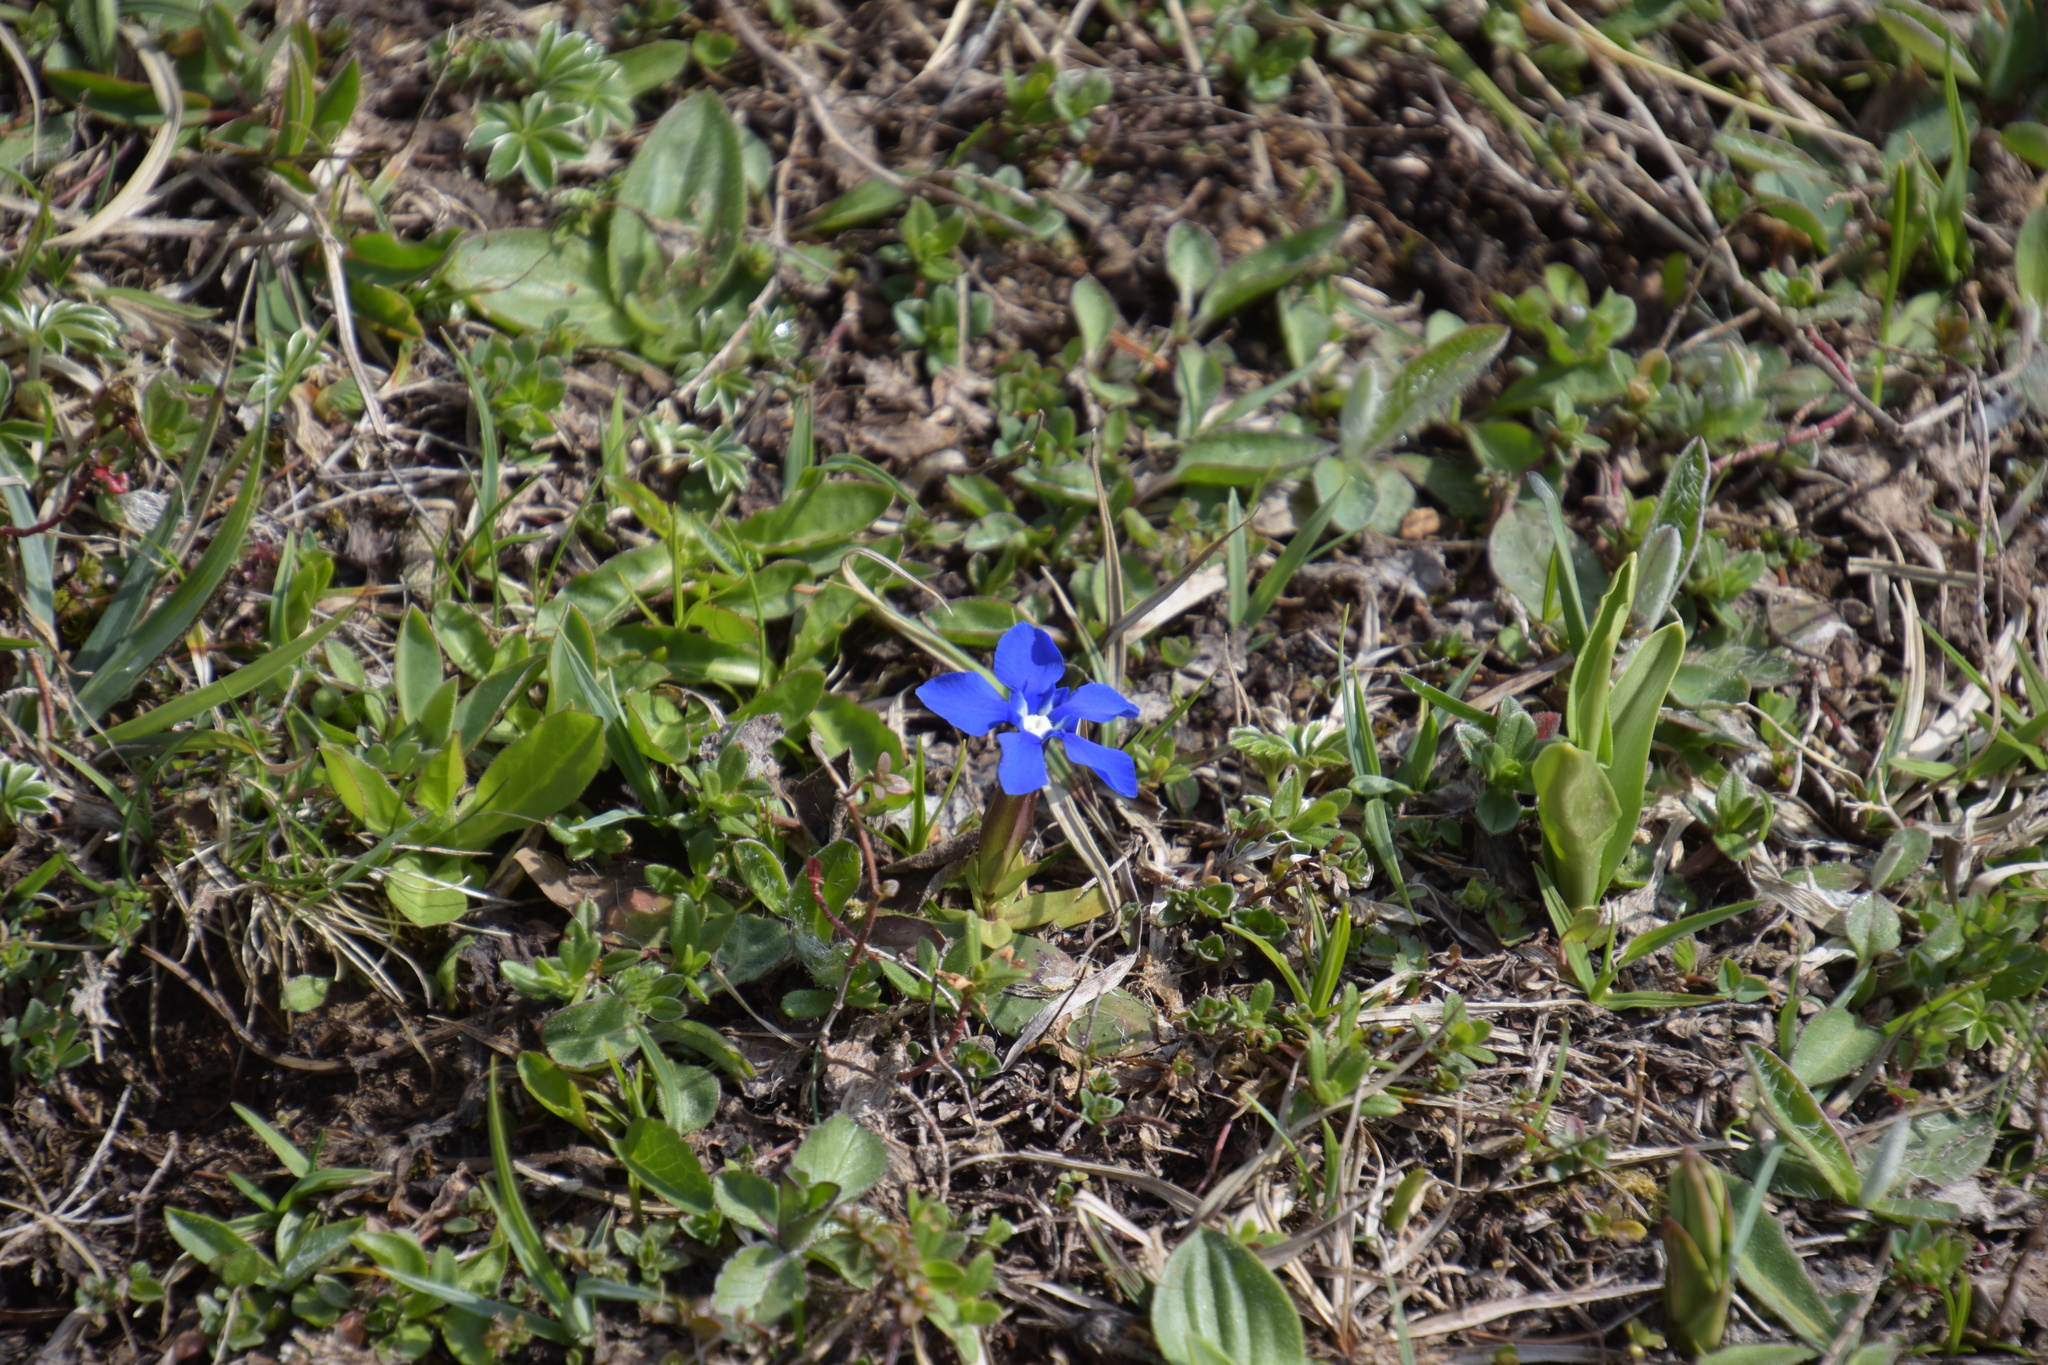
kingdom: Plantae
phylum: Tracheophyta
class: Magnoliopsida
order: Gentianales
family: Gentianaceae
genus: Gentiana
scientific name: Gentiana verna
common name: Spring gentian
